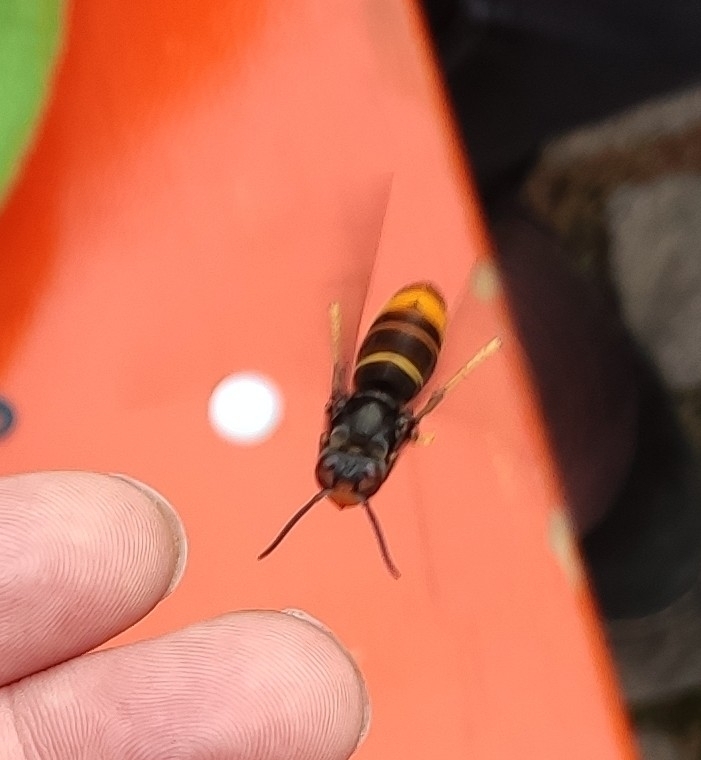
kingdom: Animalia
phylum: Arthropoda
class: Insecta
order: Hymenoptera
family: Vespidae
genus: Vespa
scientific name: Vespa velutina
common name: Asian hornet
